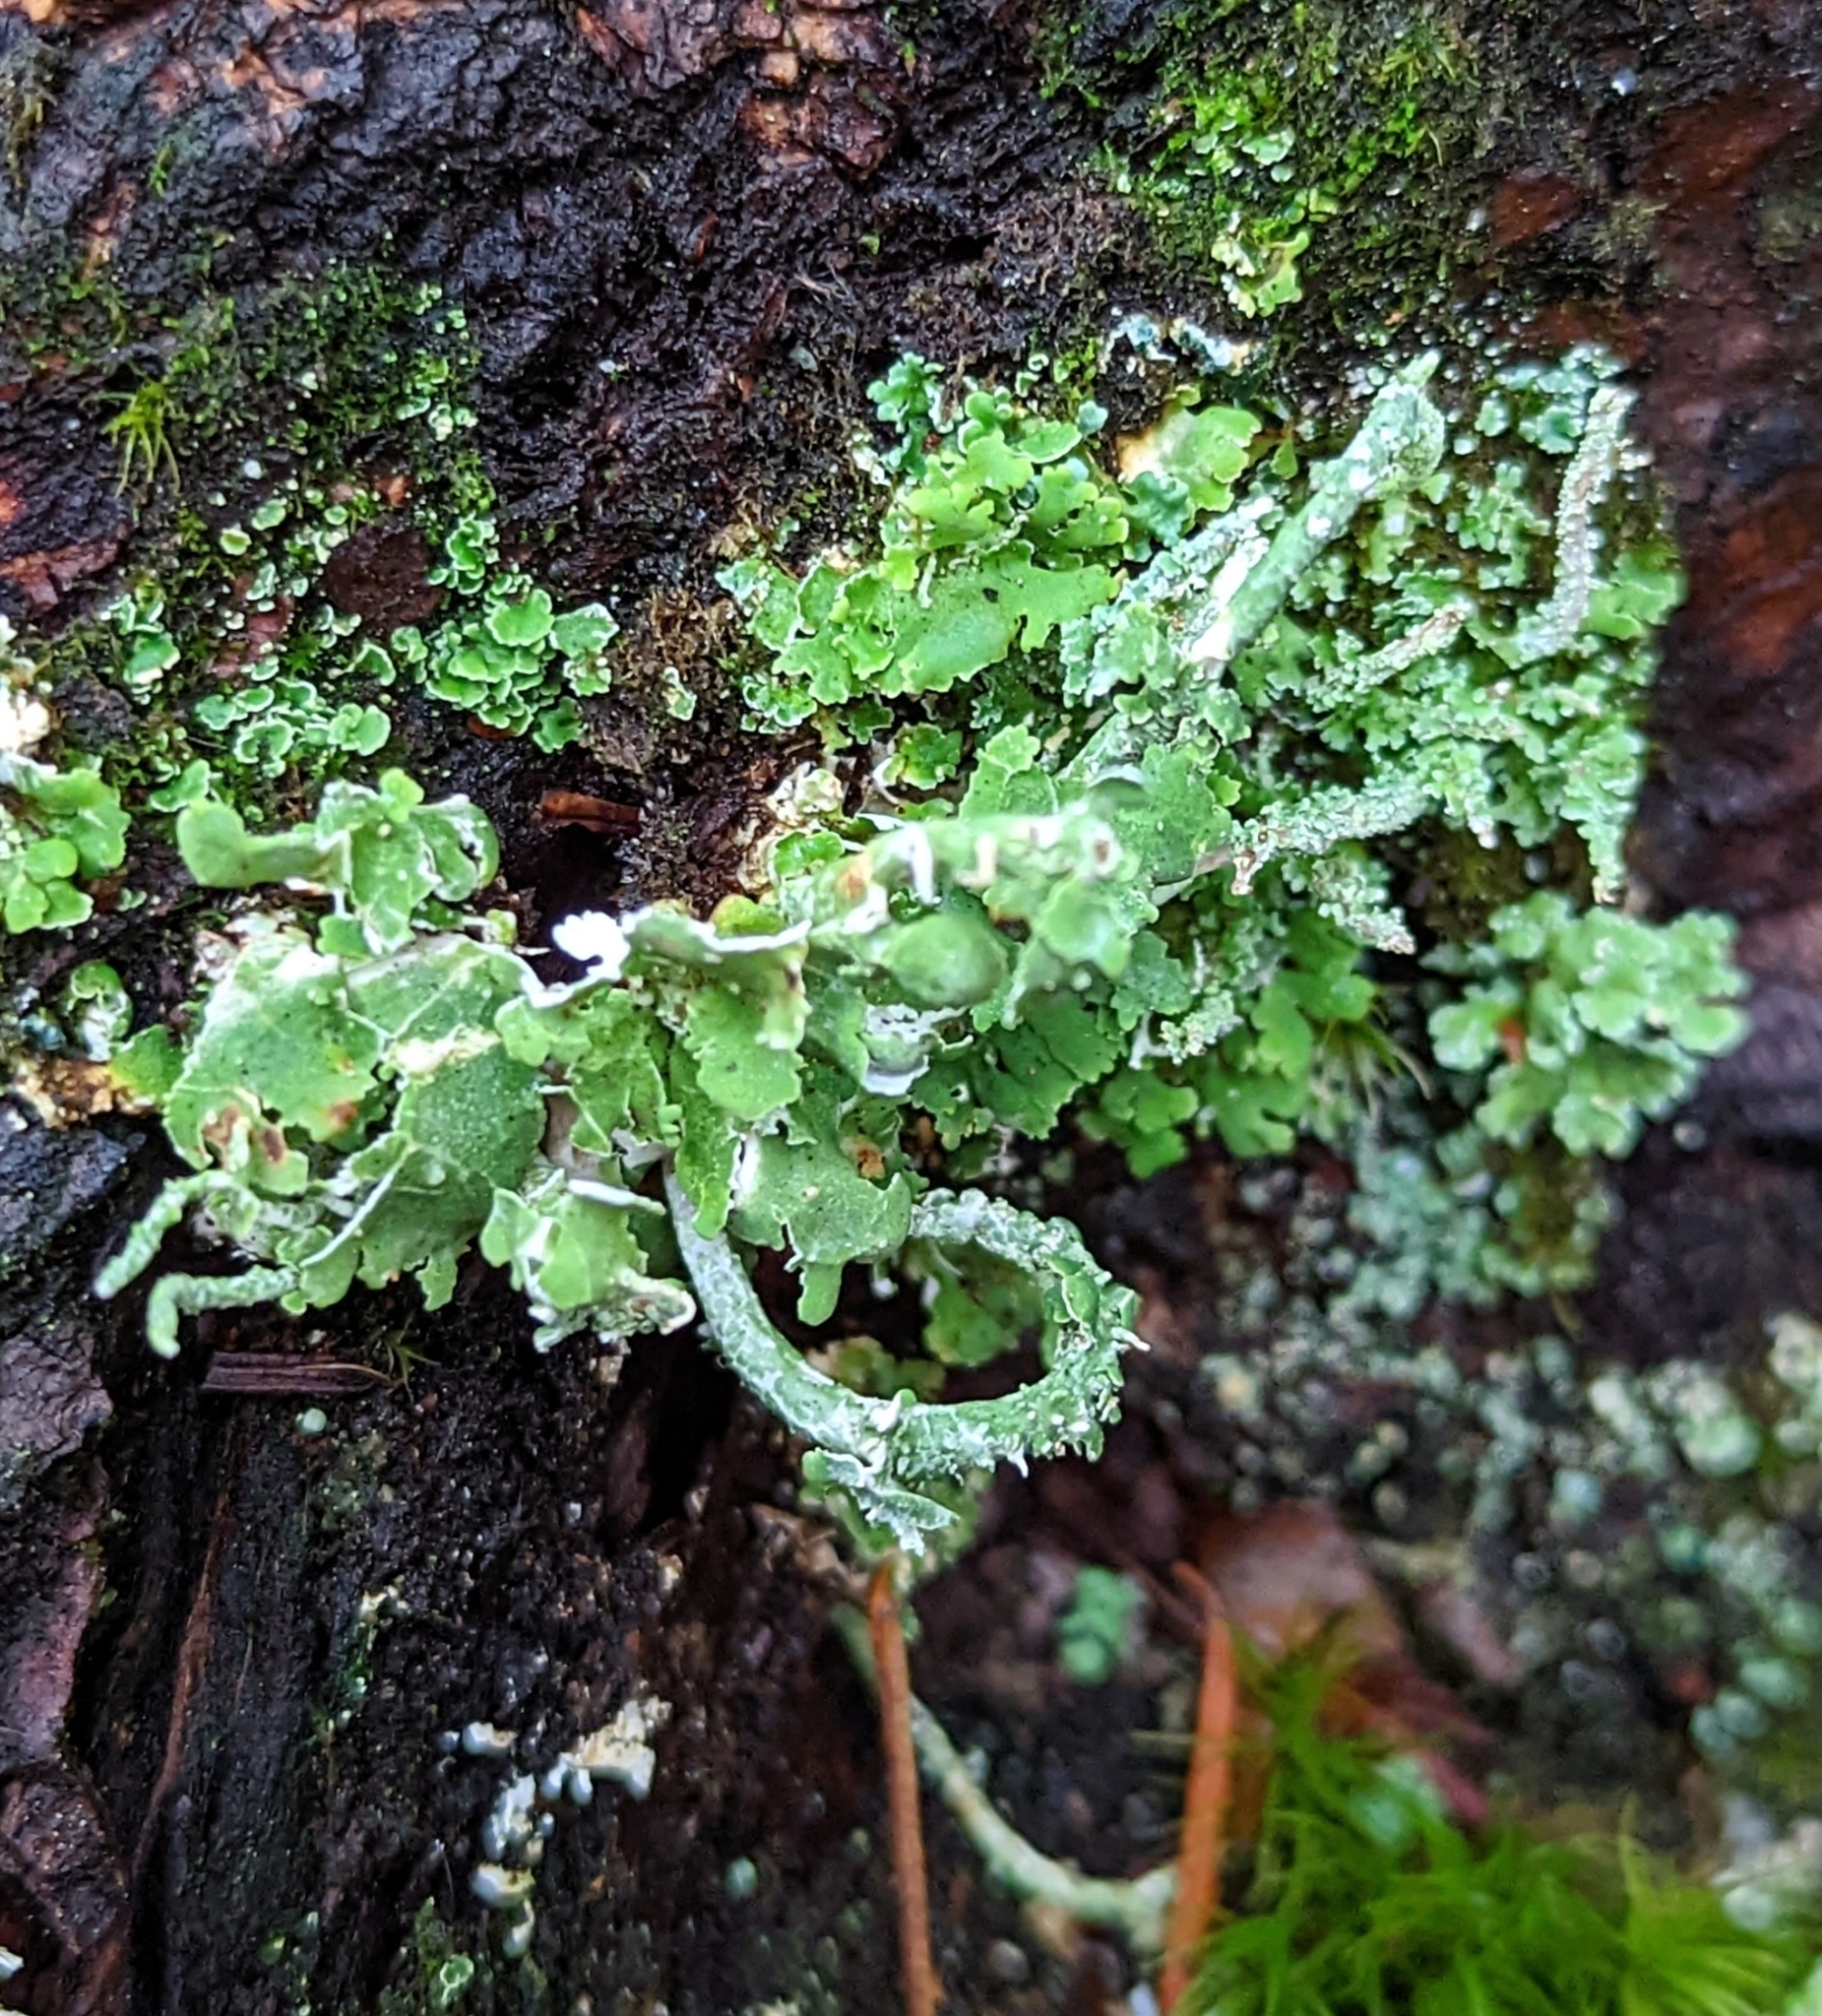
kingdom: Fungi
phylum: Ascomycota
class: Lecanoromycetes
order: Lecanorales
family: Cladoniaceae
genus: Cladonia
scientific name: Cladonia coniocraea
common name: Common powderhorn
